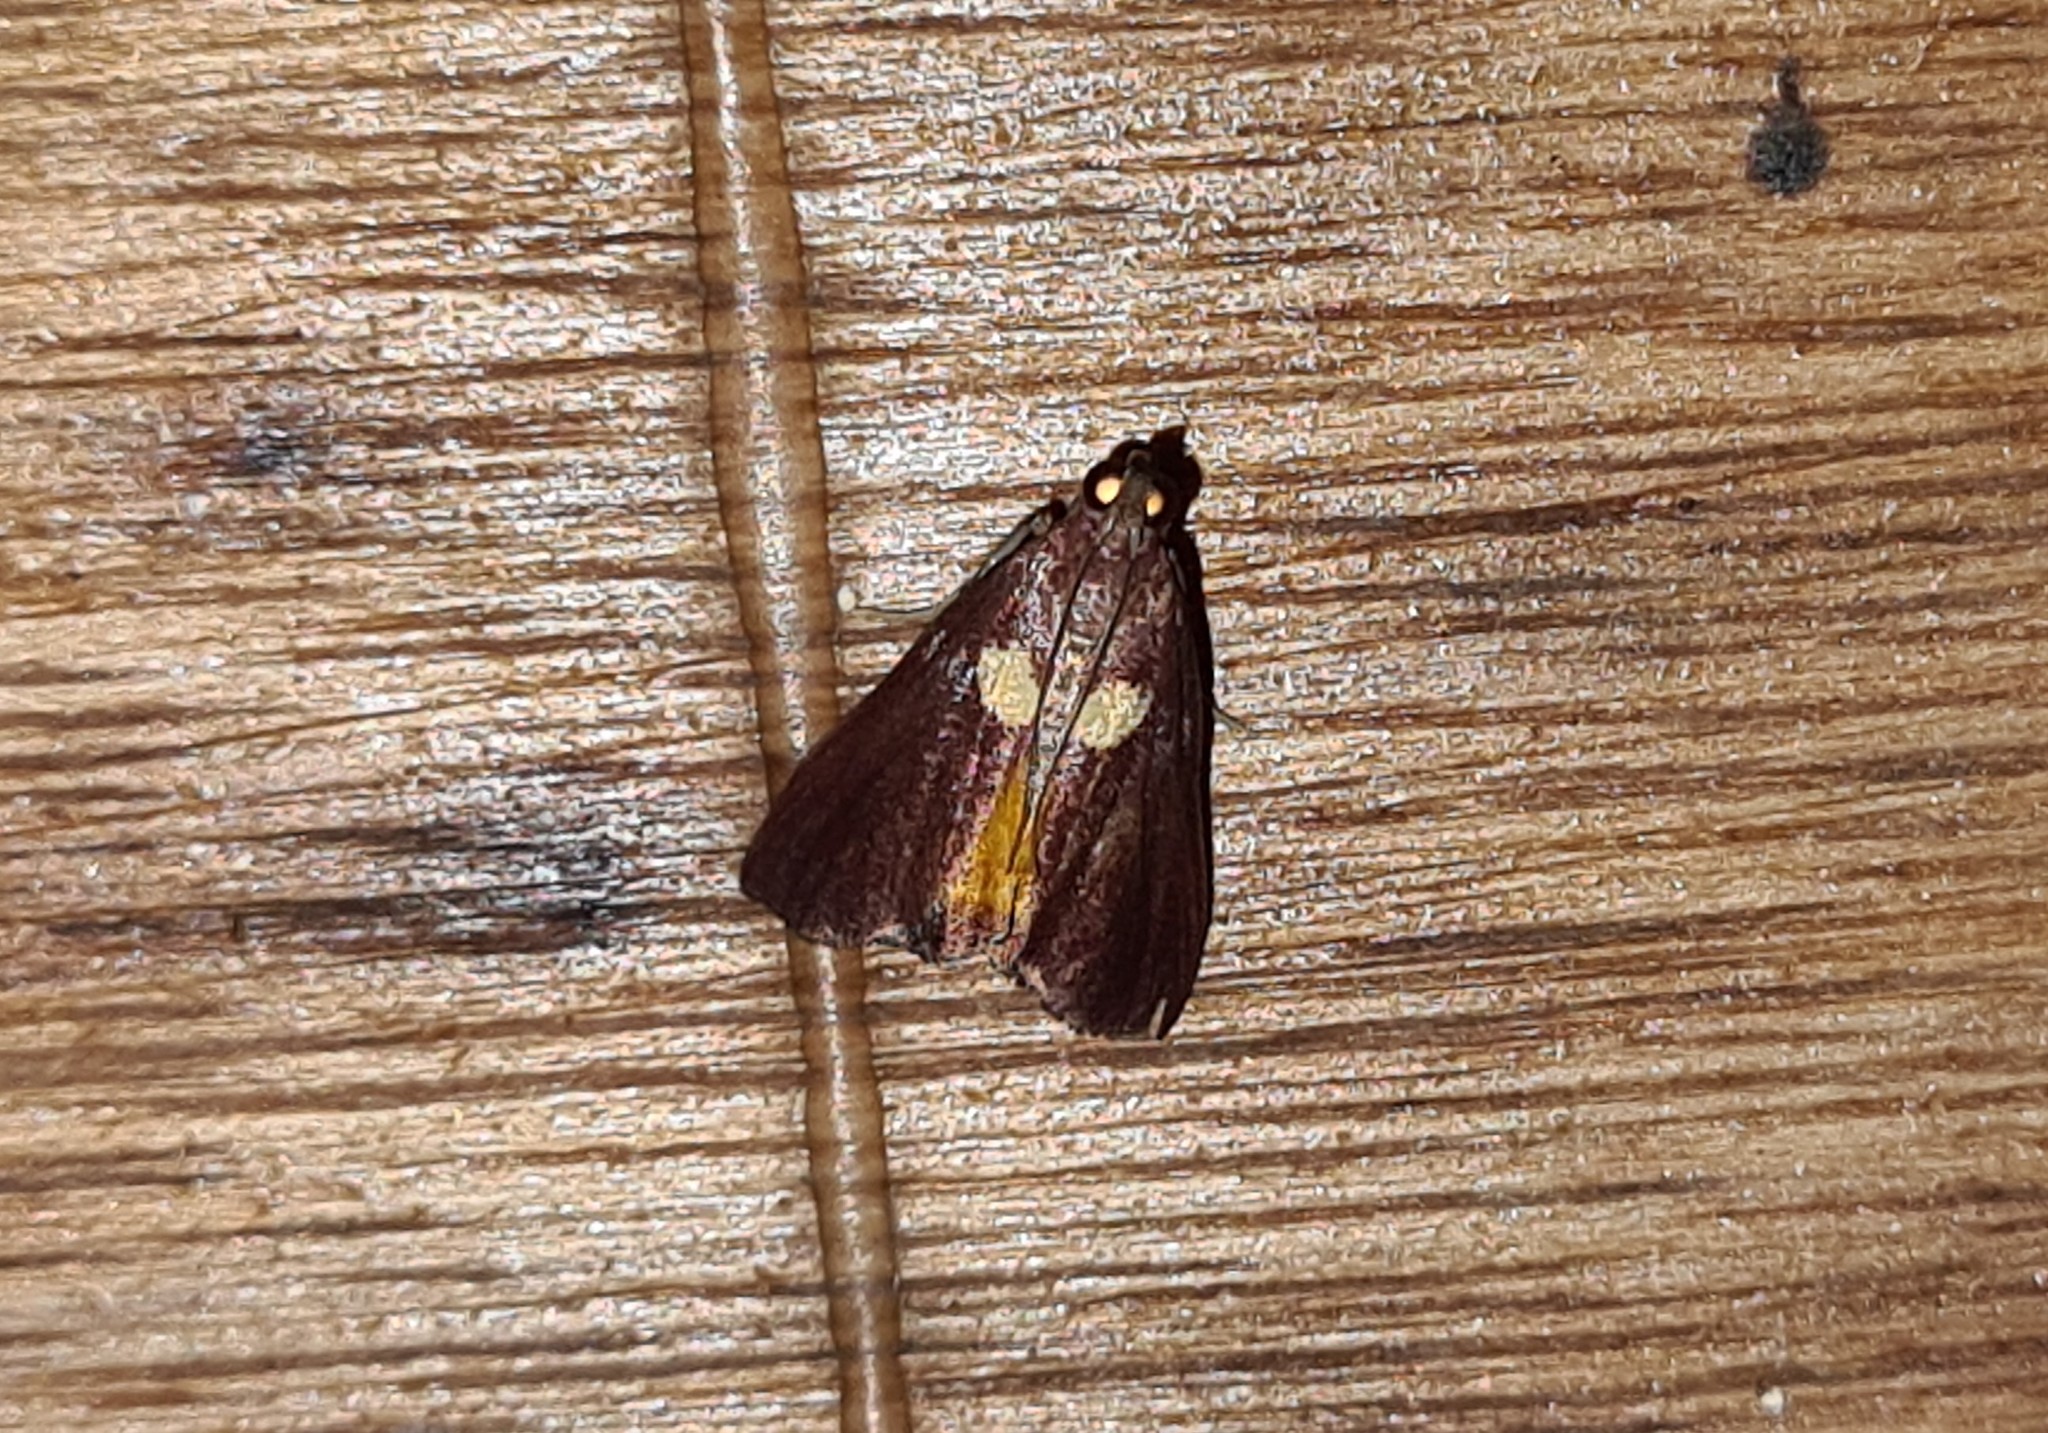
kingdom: Animalia
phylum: Arthropoda
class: Insecta
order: Lepidoptera
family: Pyralidae
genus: Semnia
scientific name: Semnia auritalis
